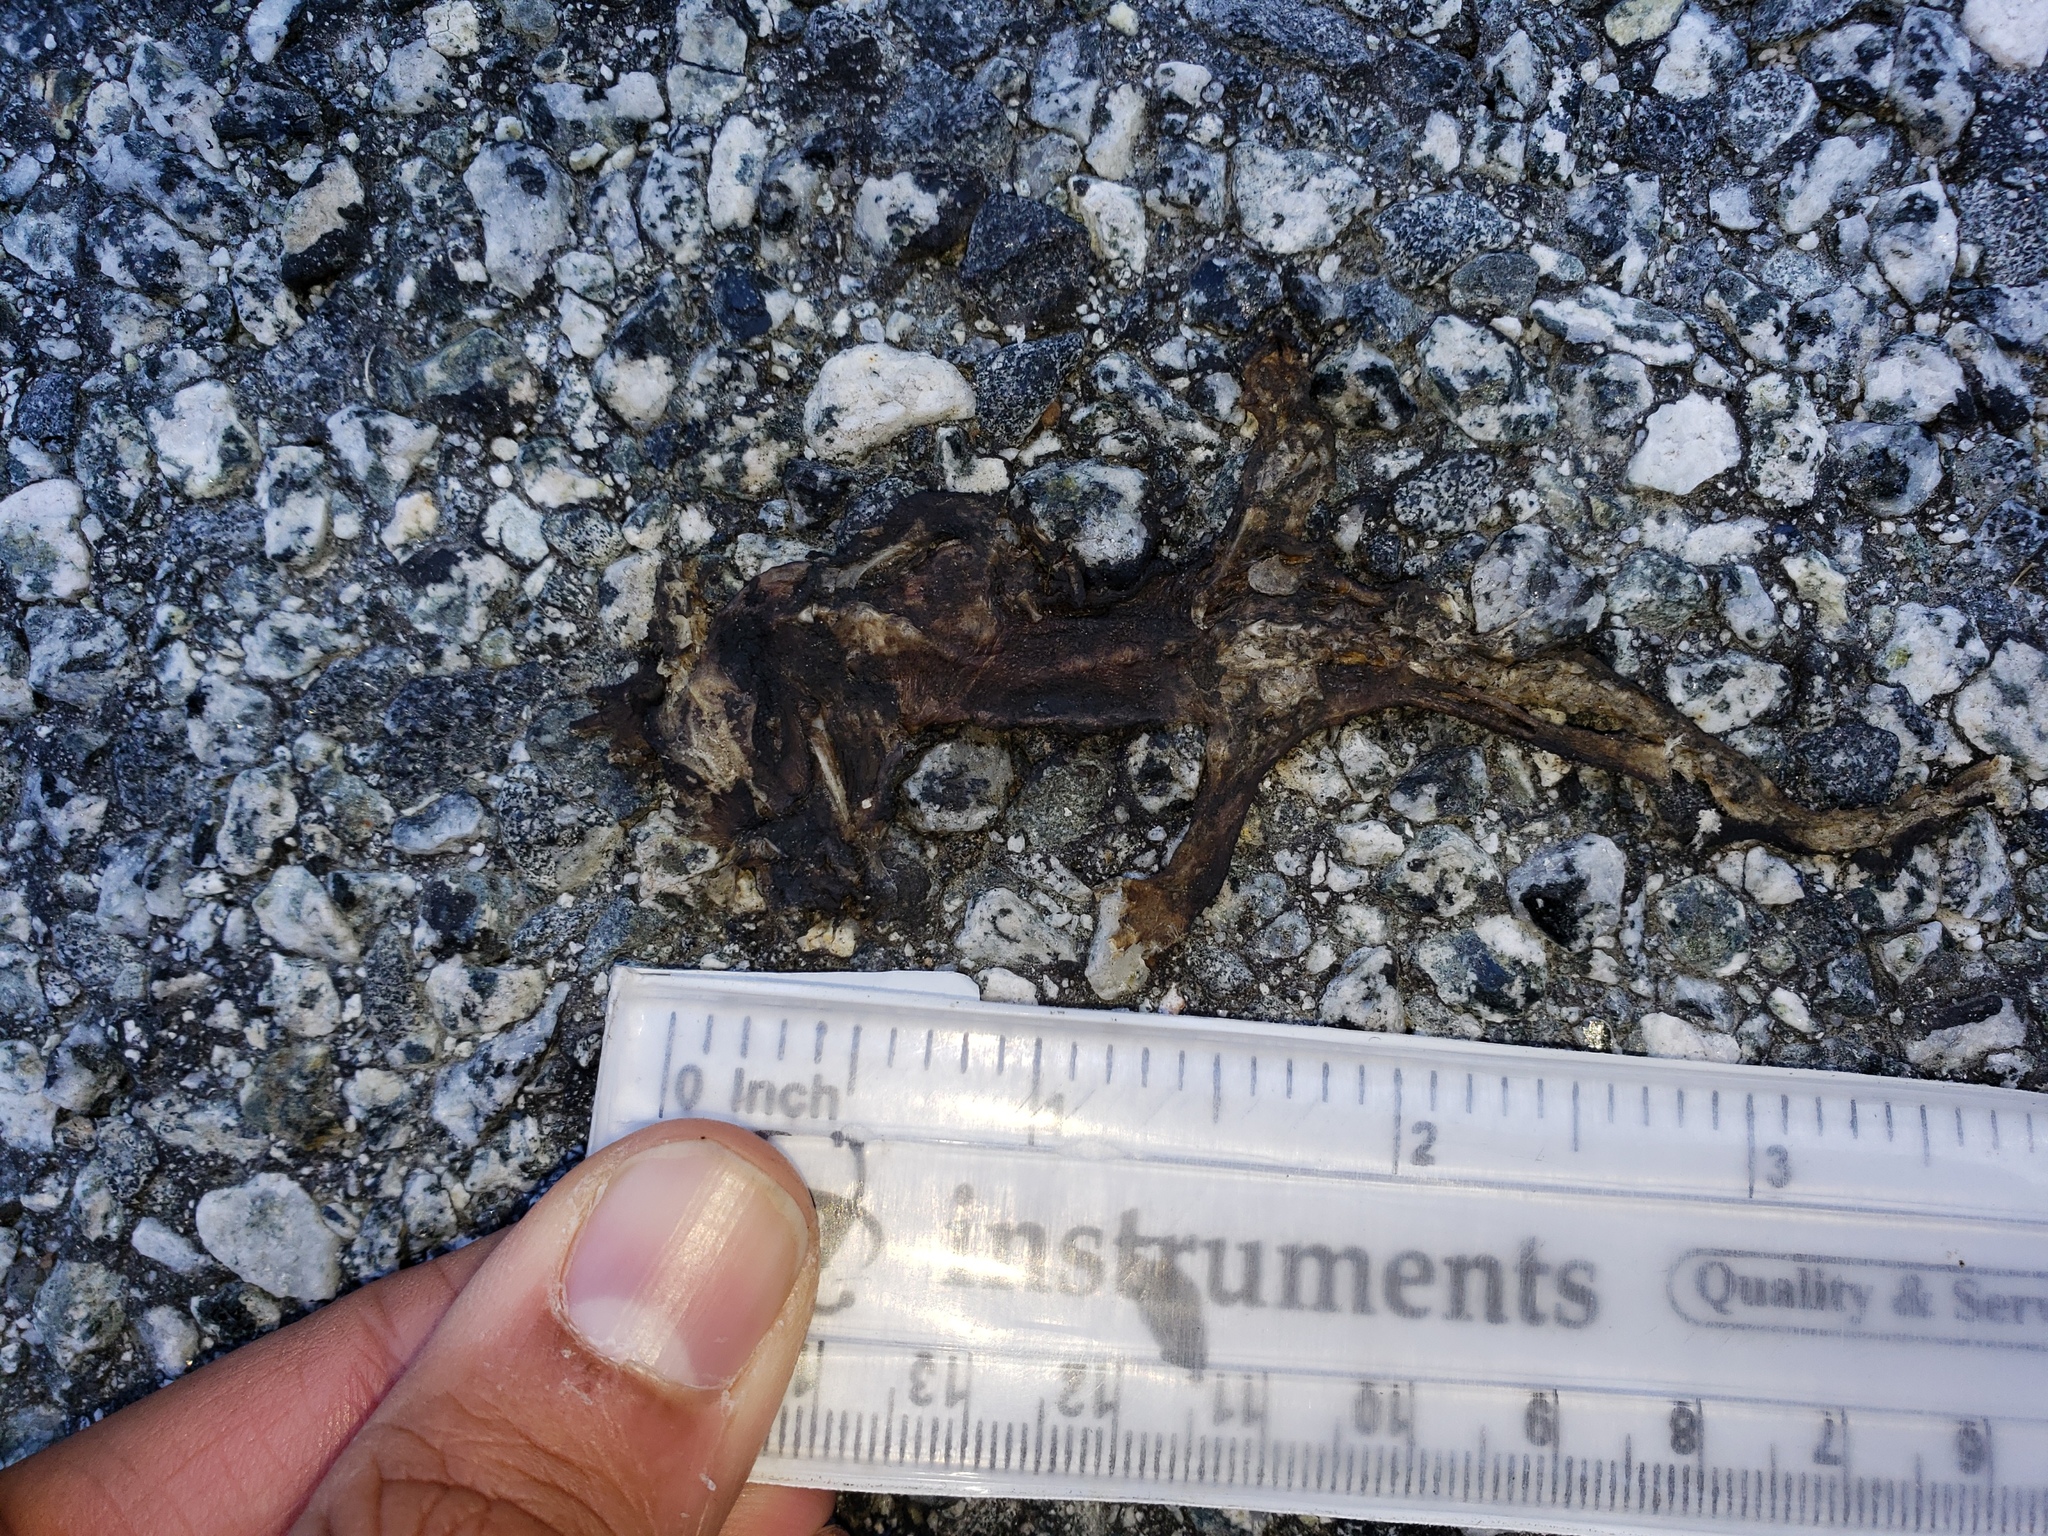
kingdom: Animalia
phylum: Chordata
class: Amphibia
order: Caudata
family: Salamandridae
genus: Taricha
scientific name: Taricha
